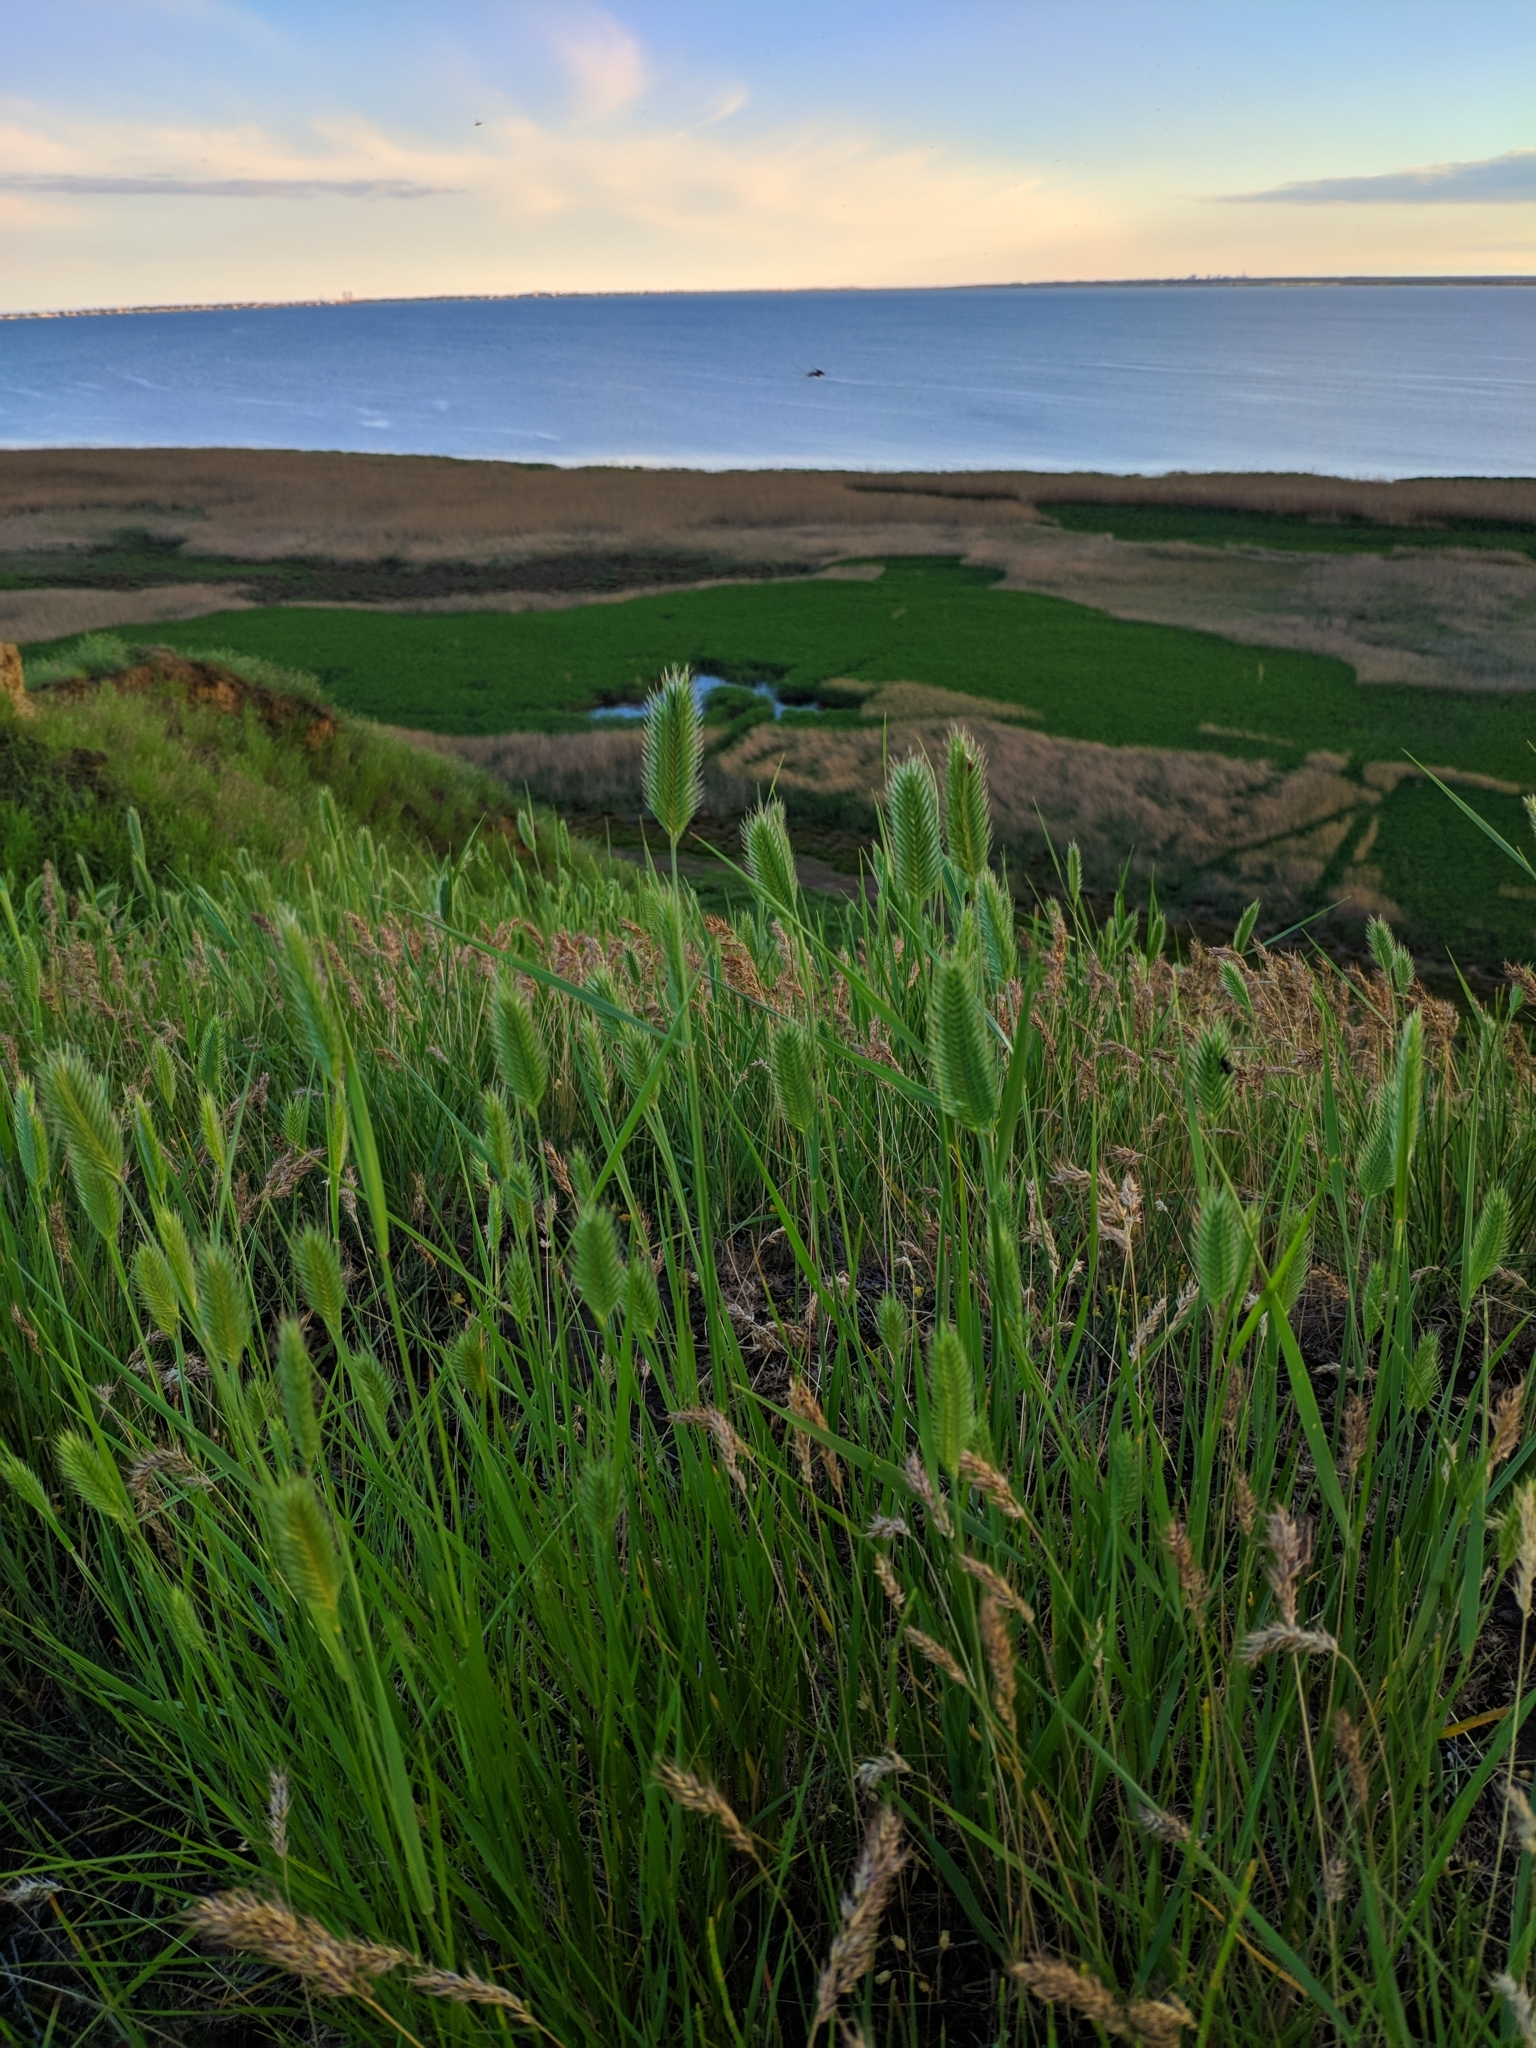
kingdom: Plantae
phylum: Tracheophyta
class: Liliopsida
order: Poales
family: Poaceae
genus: Agropyron
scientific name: Agropyron cristatum
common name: Crested wheatgrass
